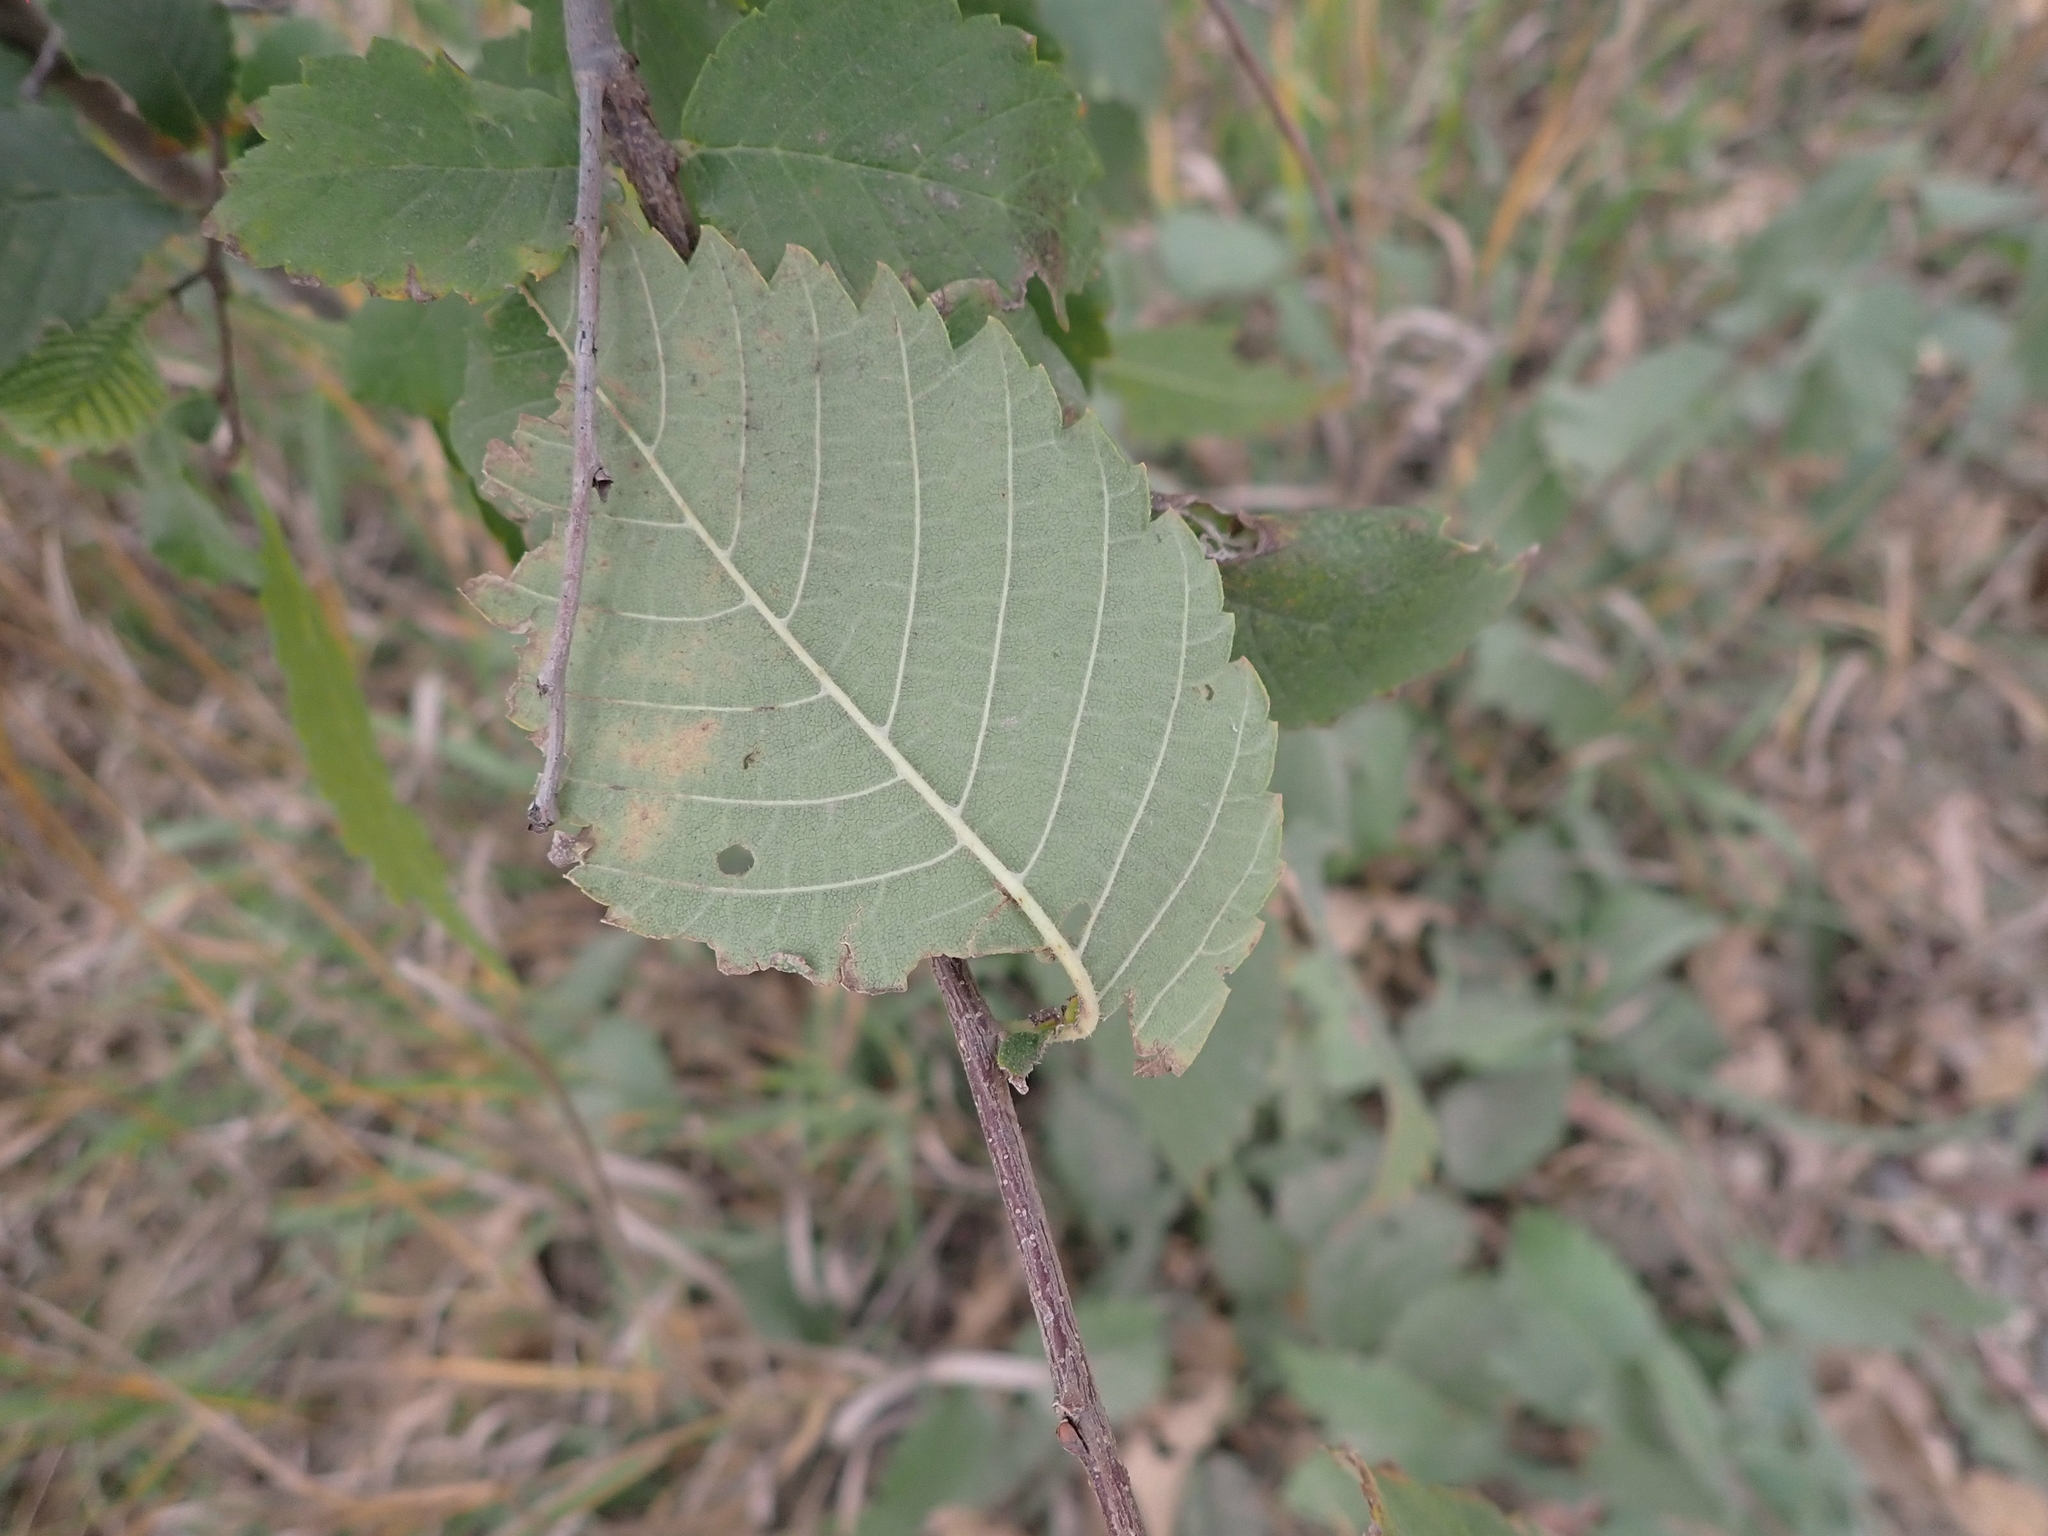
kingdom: Plantae
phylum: Tracheophyta
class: Magnoliopsida
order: Rosales
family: Ulmaceae
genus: Ulmus
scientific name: Ulmus americana
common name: American elm
